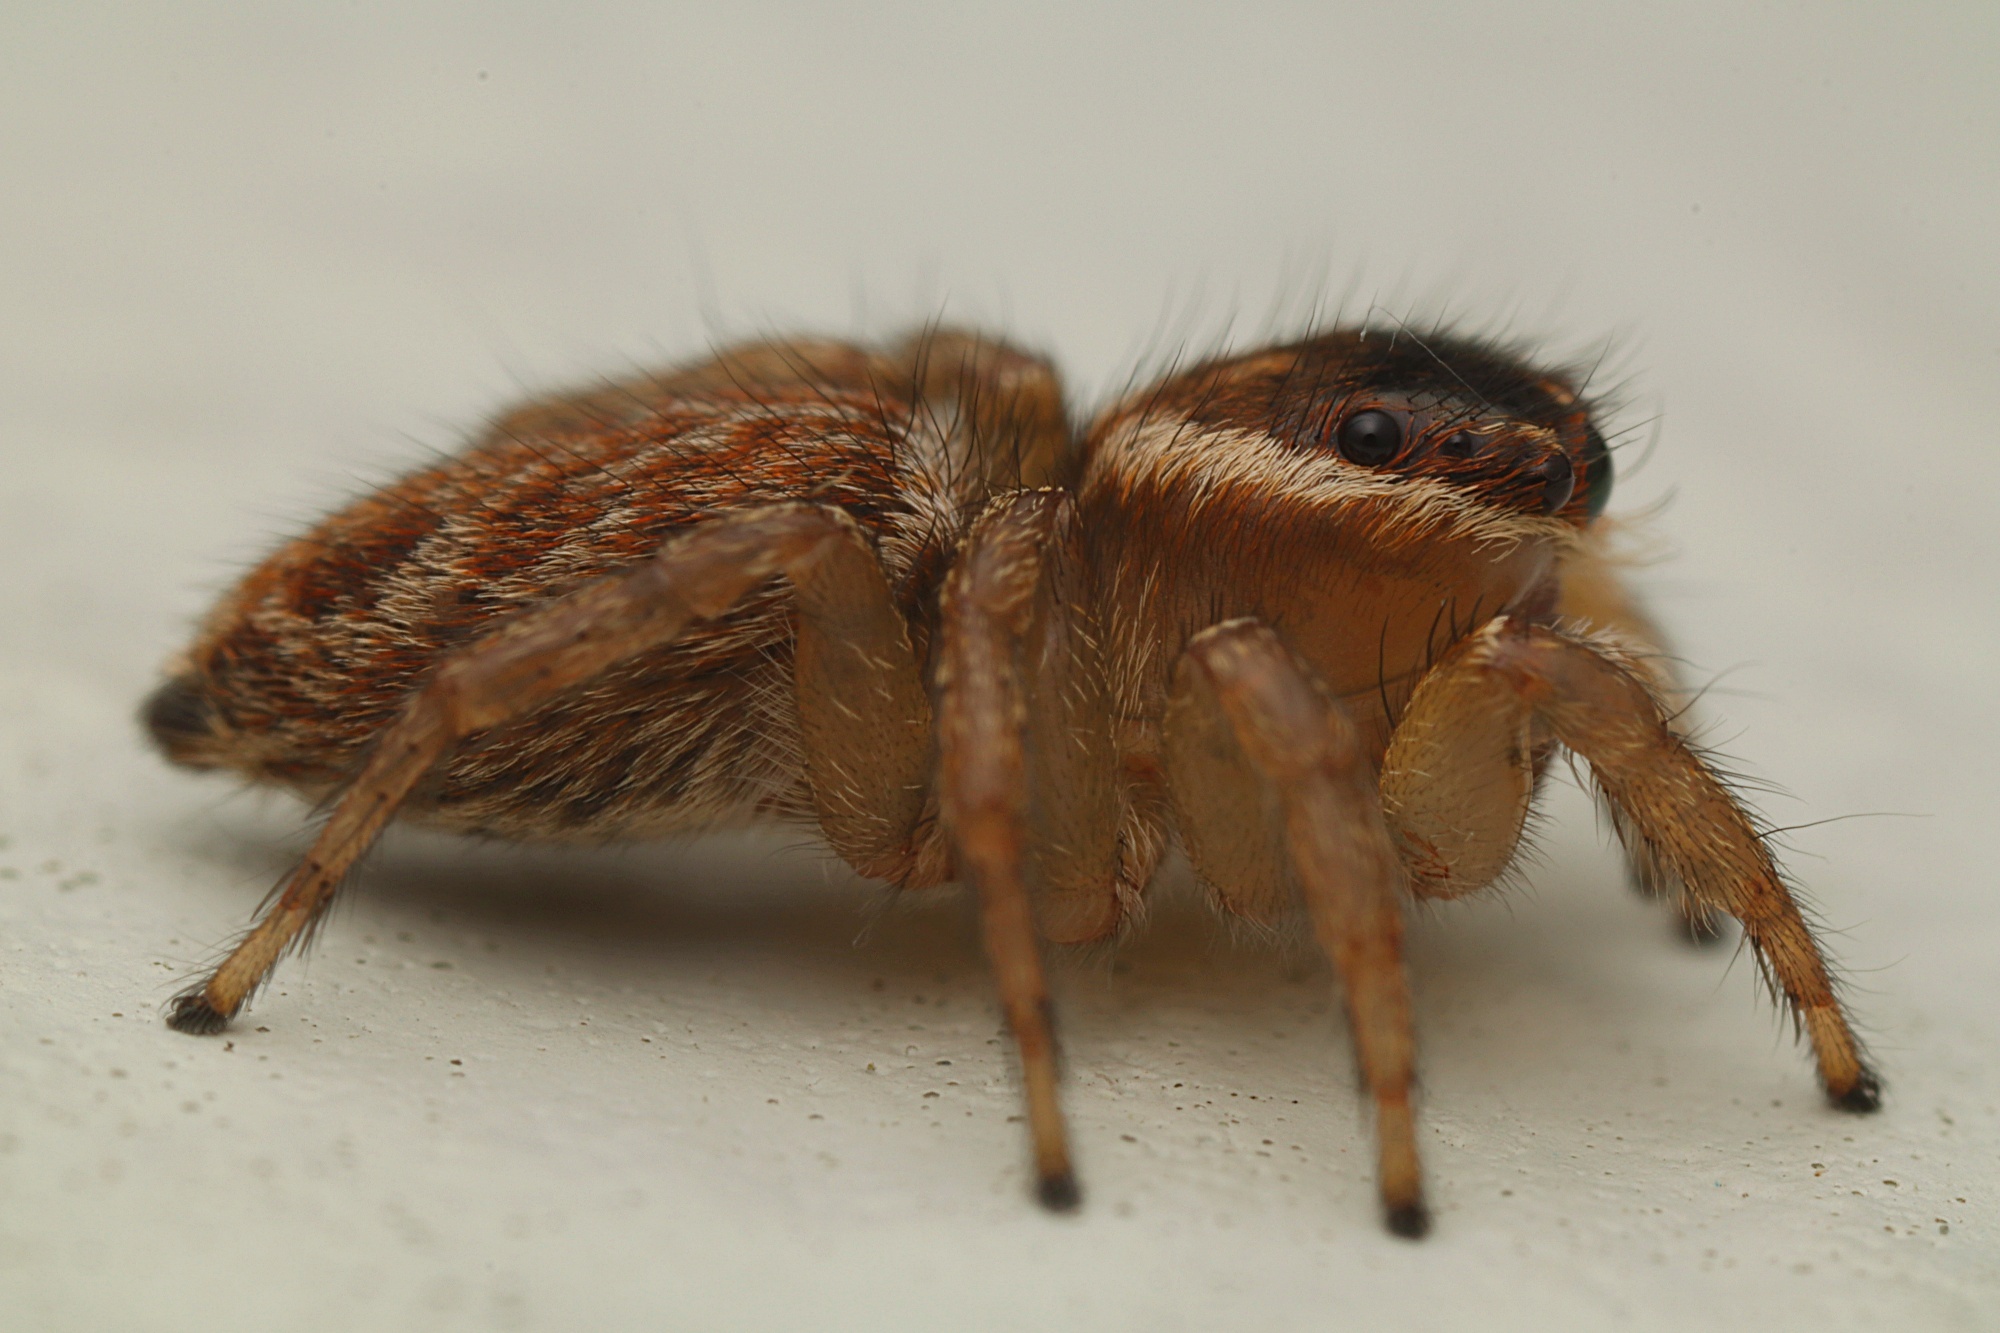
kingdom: Animalia
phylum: Arthropoda
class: Arachnida
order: Araneae
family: Salticidae
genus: Maratus
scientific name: Maratus griseus
